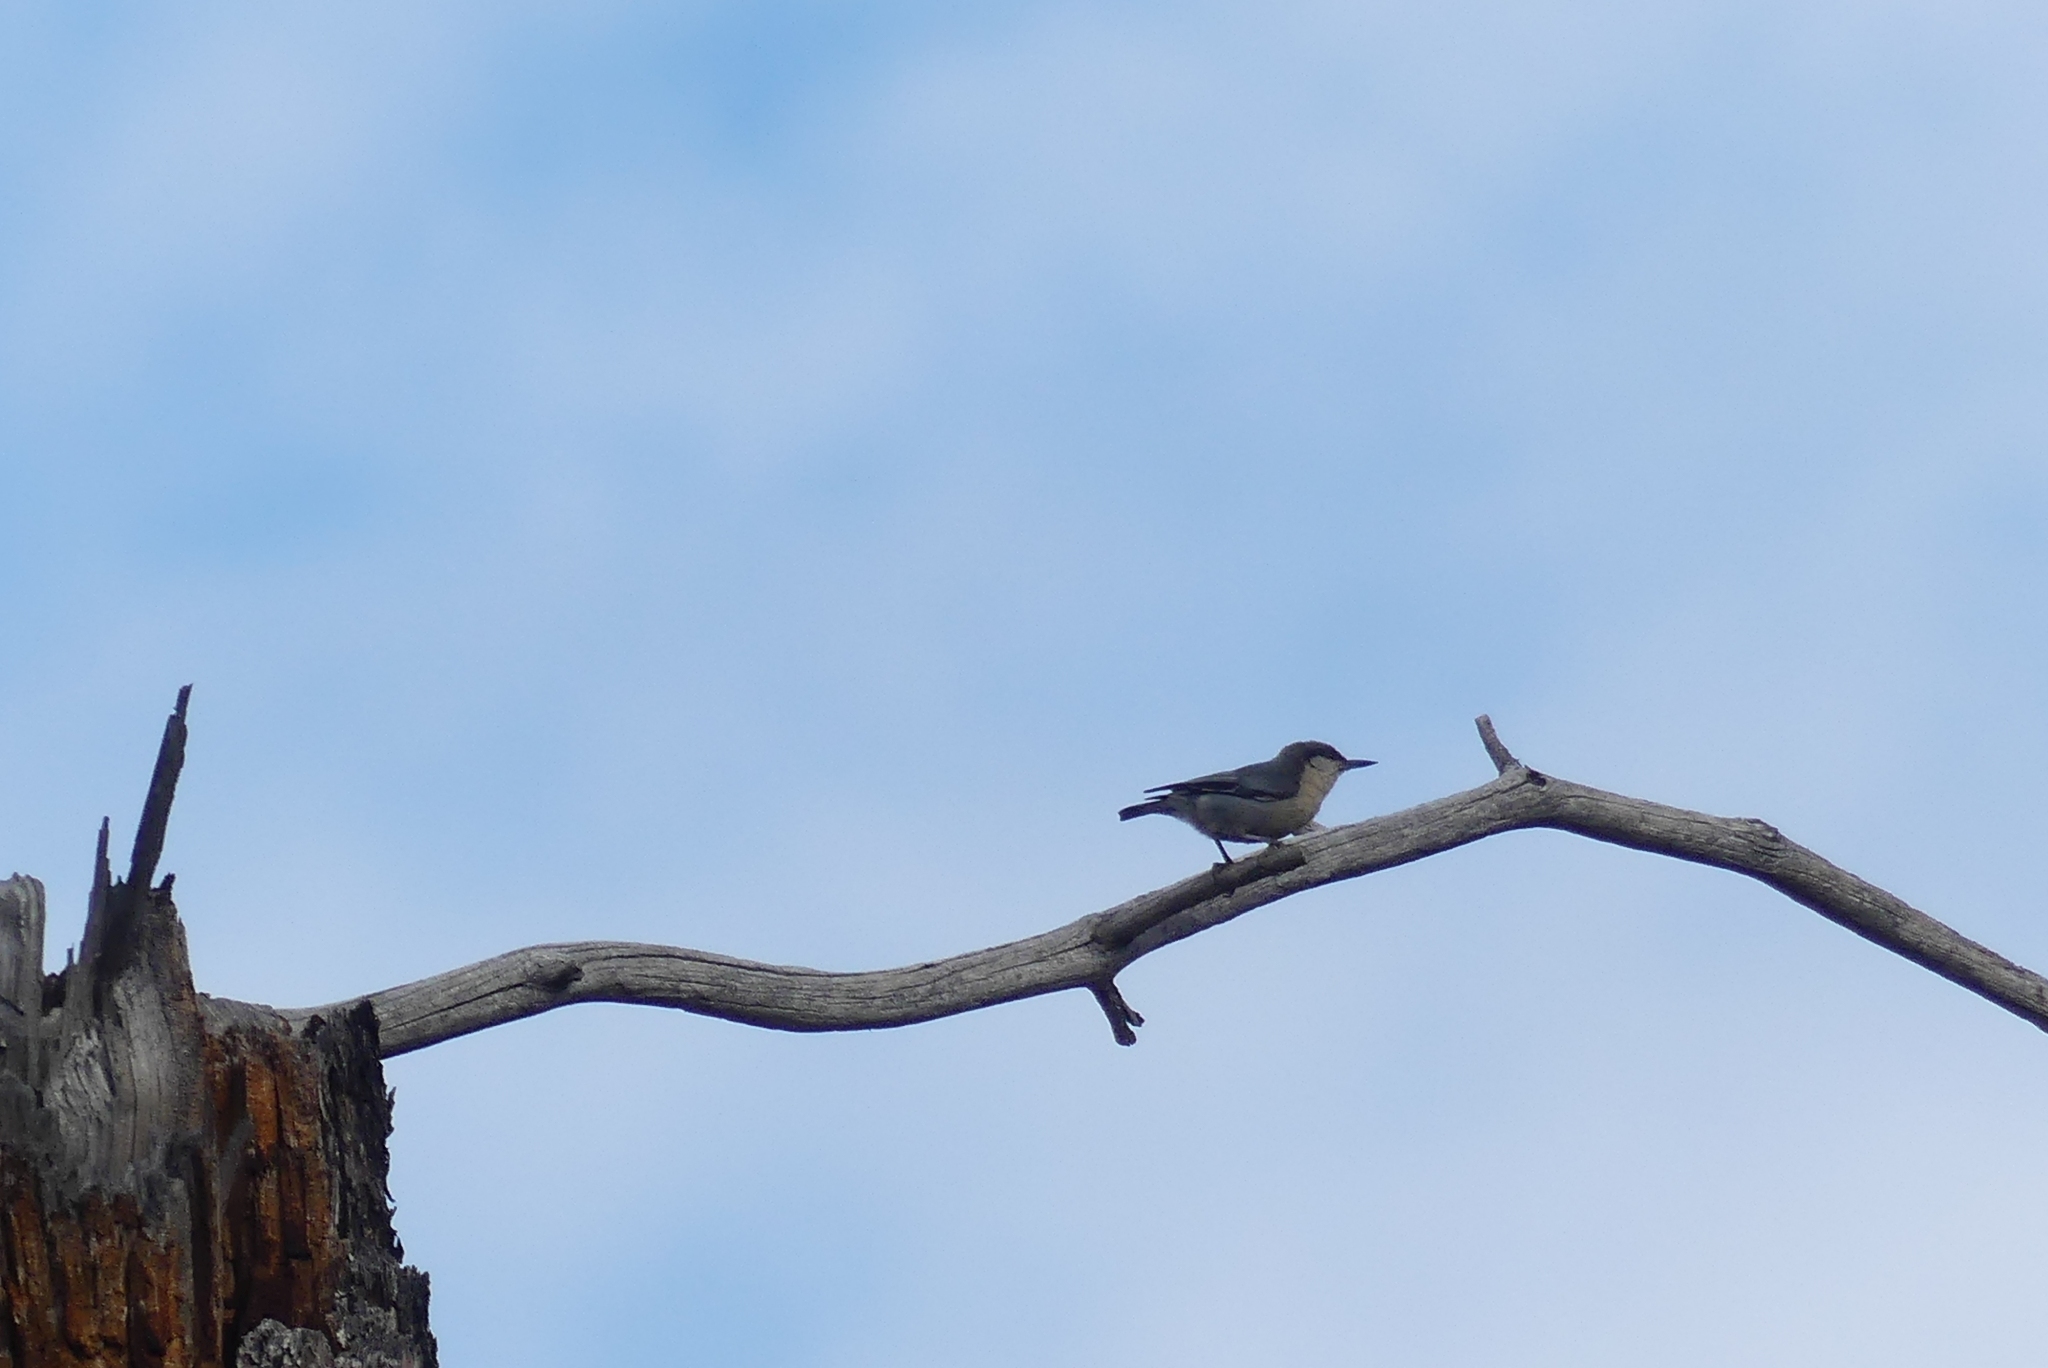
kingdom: Animalia
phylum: Chordata
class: Aves
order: Passeriformes
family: Sittidae
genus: Sitta
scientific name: Sitta pygmaea
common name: Pygmy nuthatch
